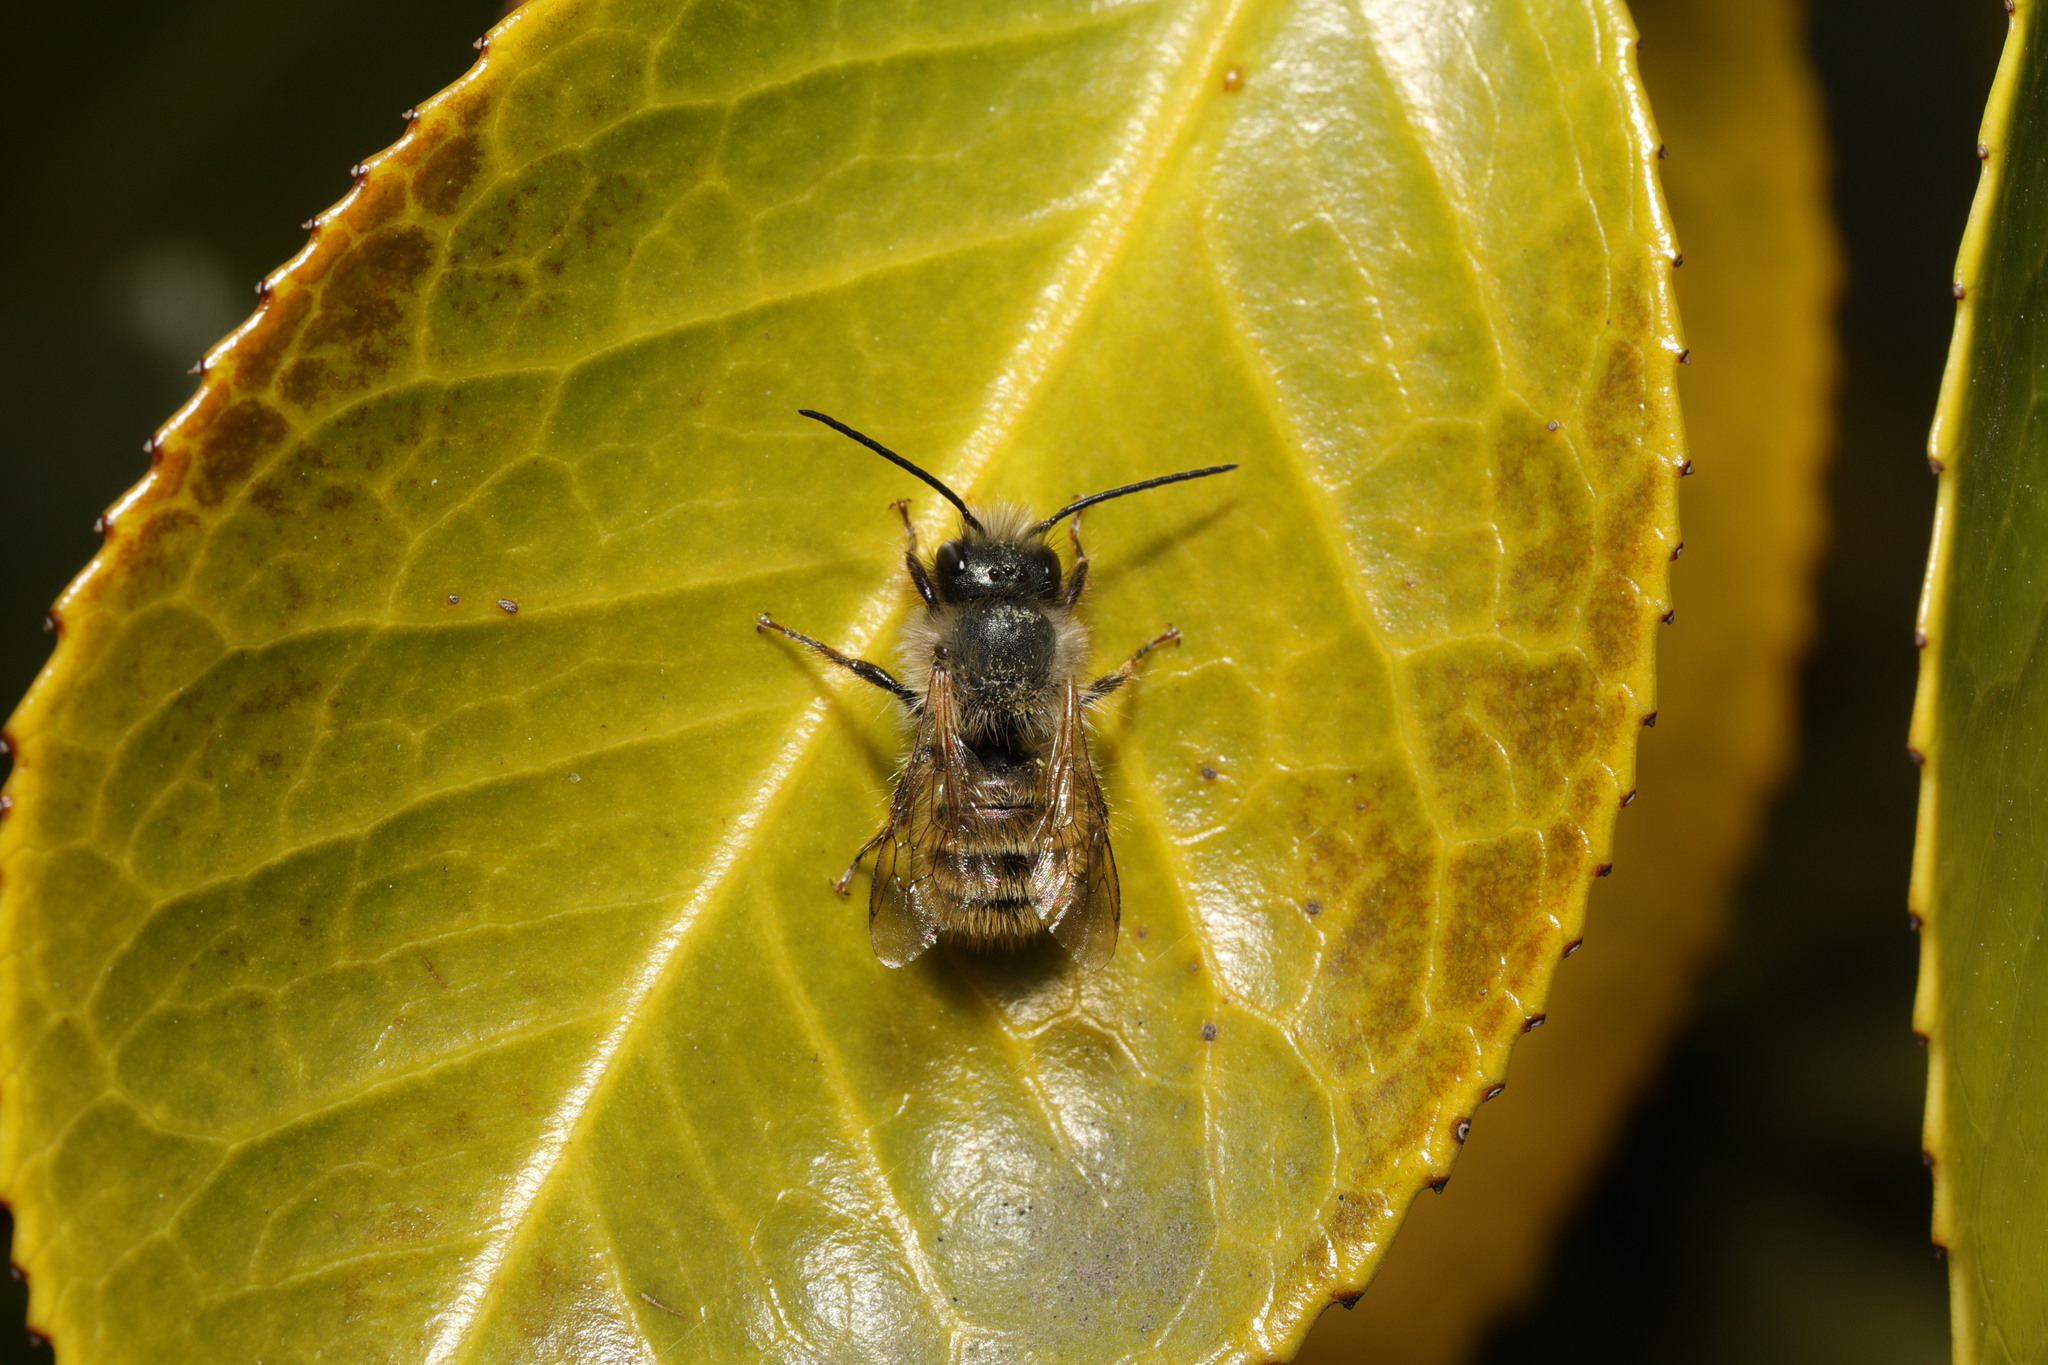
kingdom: Animalia
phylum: Arthropoda
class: Insecta
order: Hymenoptera
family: Megachilidae
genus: Osmia
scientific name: Osmia bicornis
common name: Red mason bee
